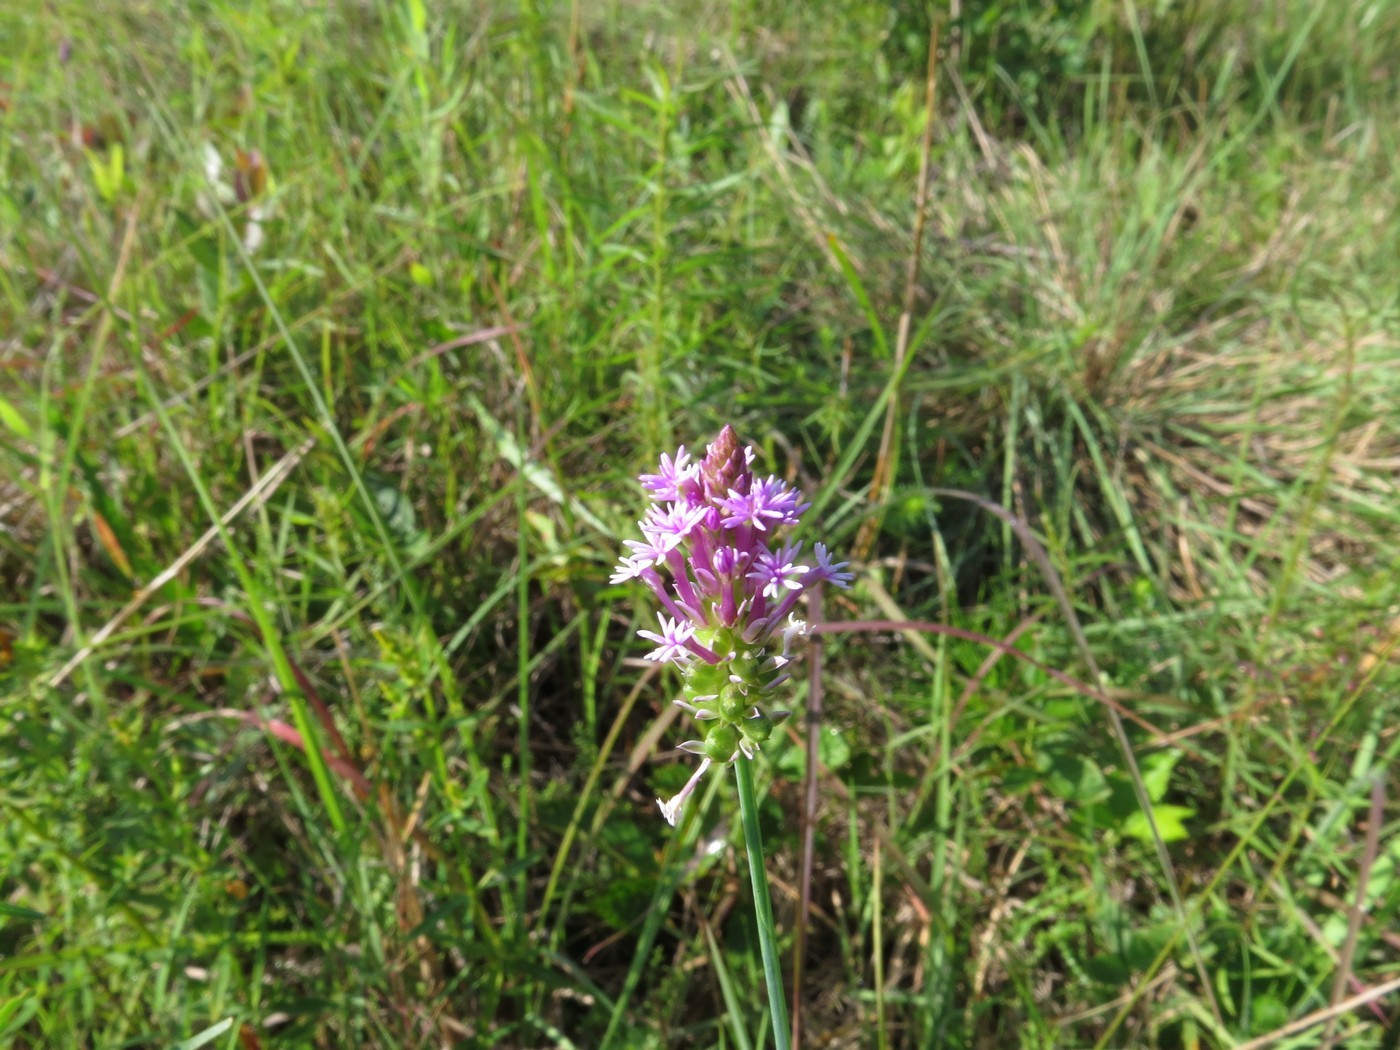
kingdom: Plantae
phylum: Tracheophyta
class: Magnoliopsida
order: Fabales
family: Polygalaceae
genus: Polygala
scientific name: Polygala incarnata
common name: Pink milkwort
